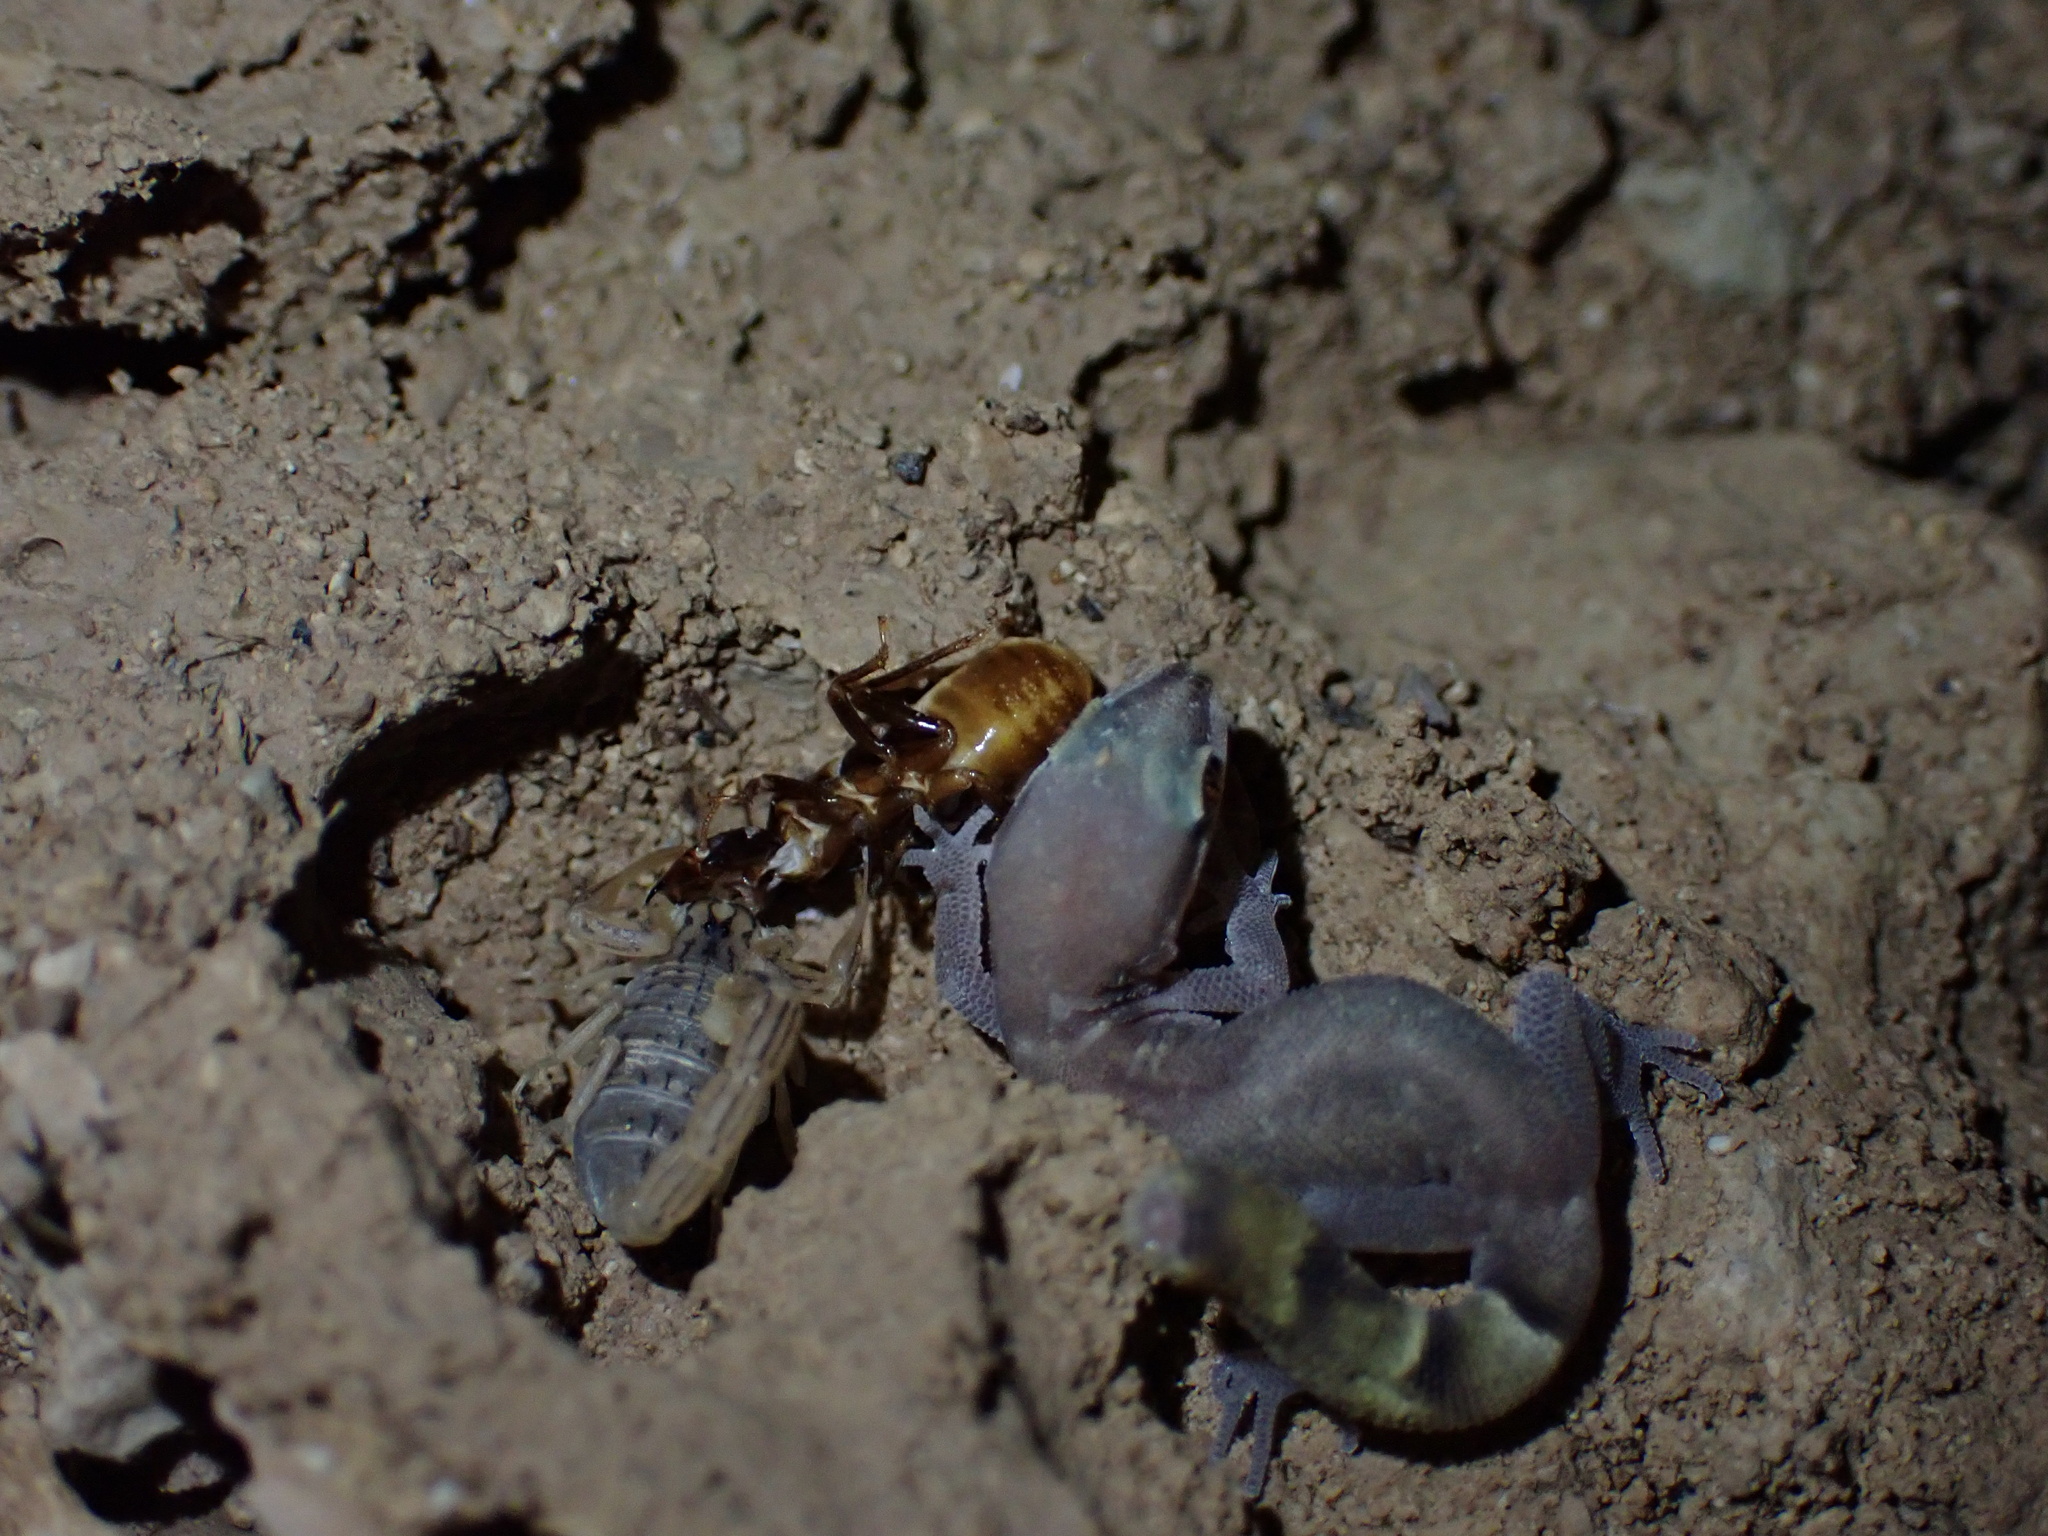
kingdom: Animalia
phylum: Arthropoda
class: Arachnida
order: Scorpiones
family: Buthidae
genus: Mesobuthus
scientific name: Mesobuthus phillipsi
